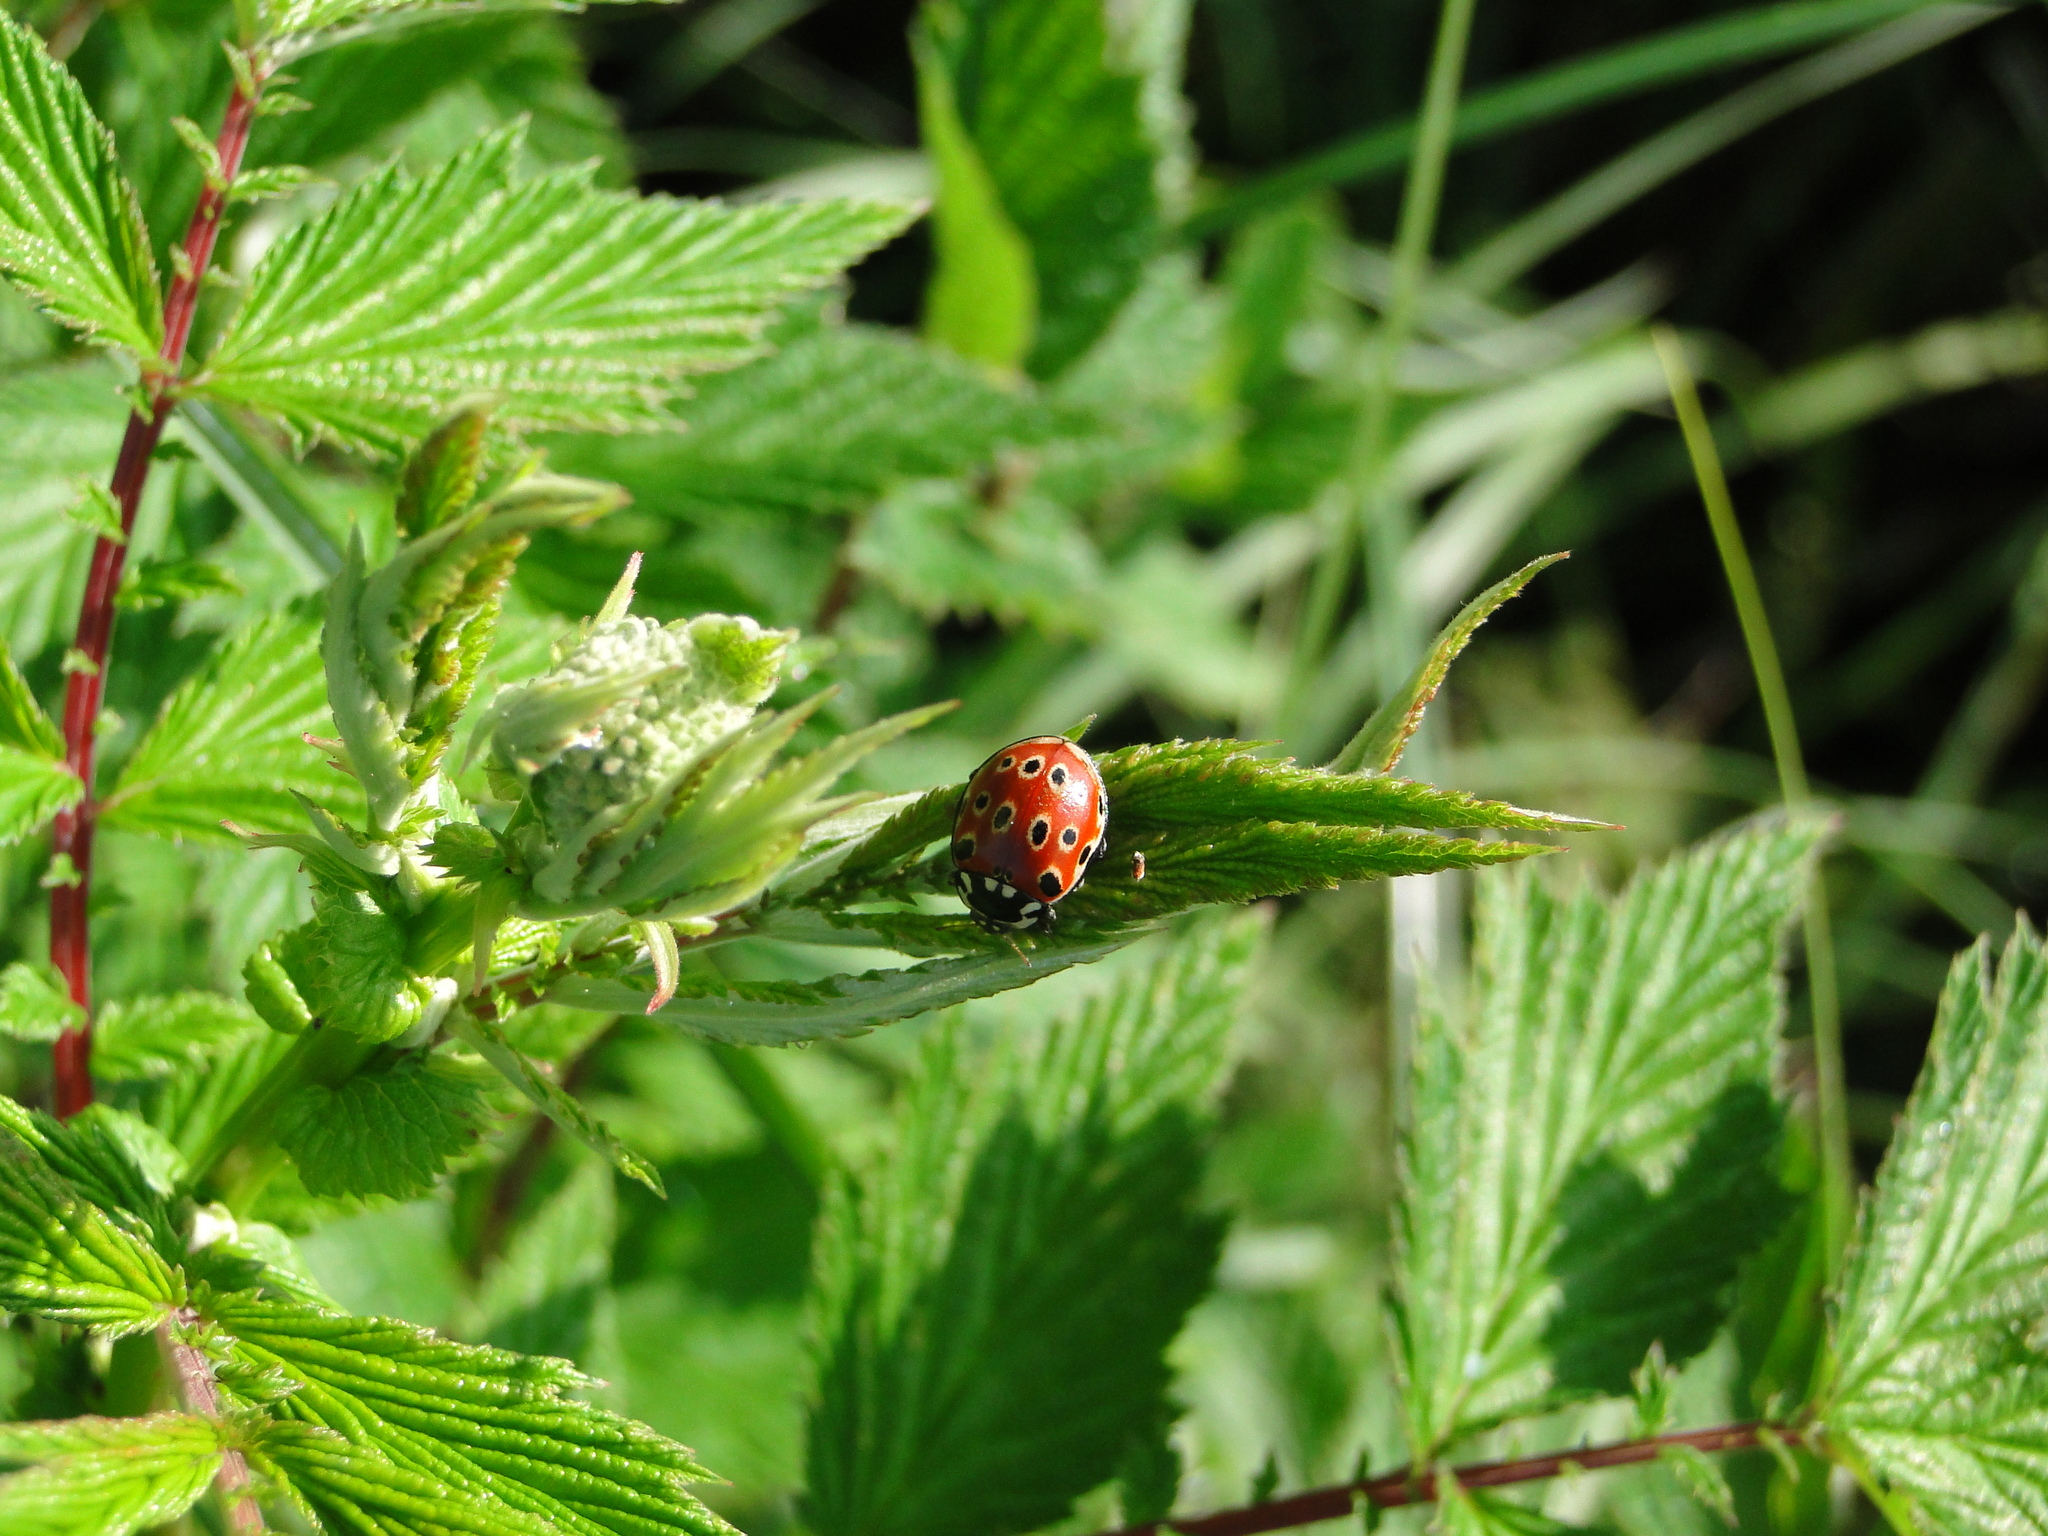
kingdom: Animalia
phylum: Arthropoda
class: Insecta
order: Coleoptera
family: Coccinellidae
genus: Anatis
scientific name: Anatis ocellata
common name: Eyed ladybird
